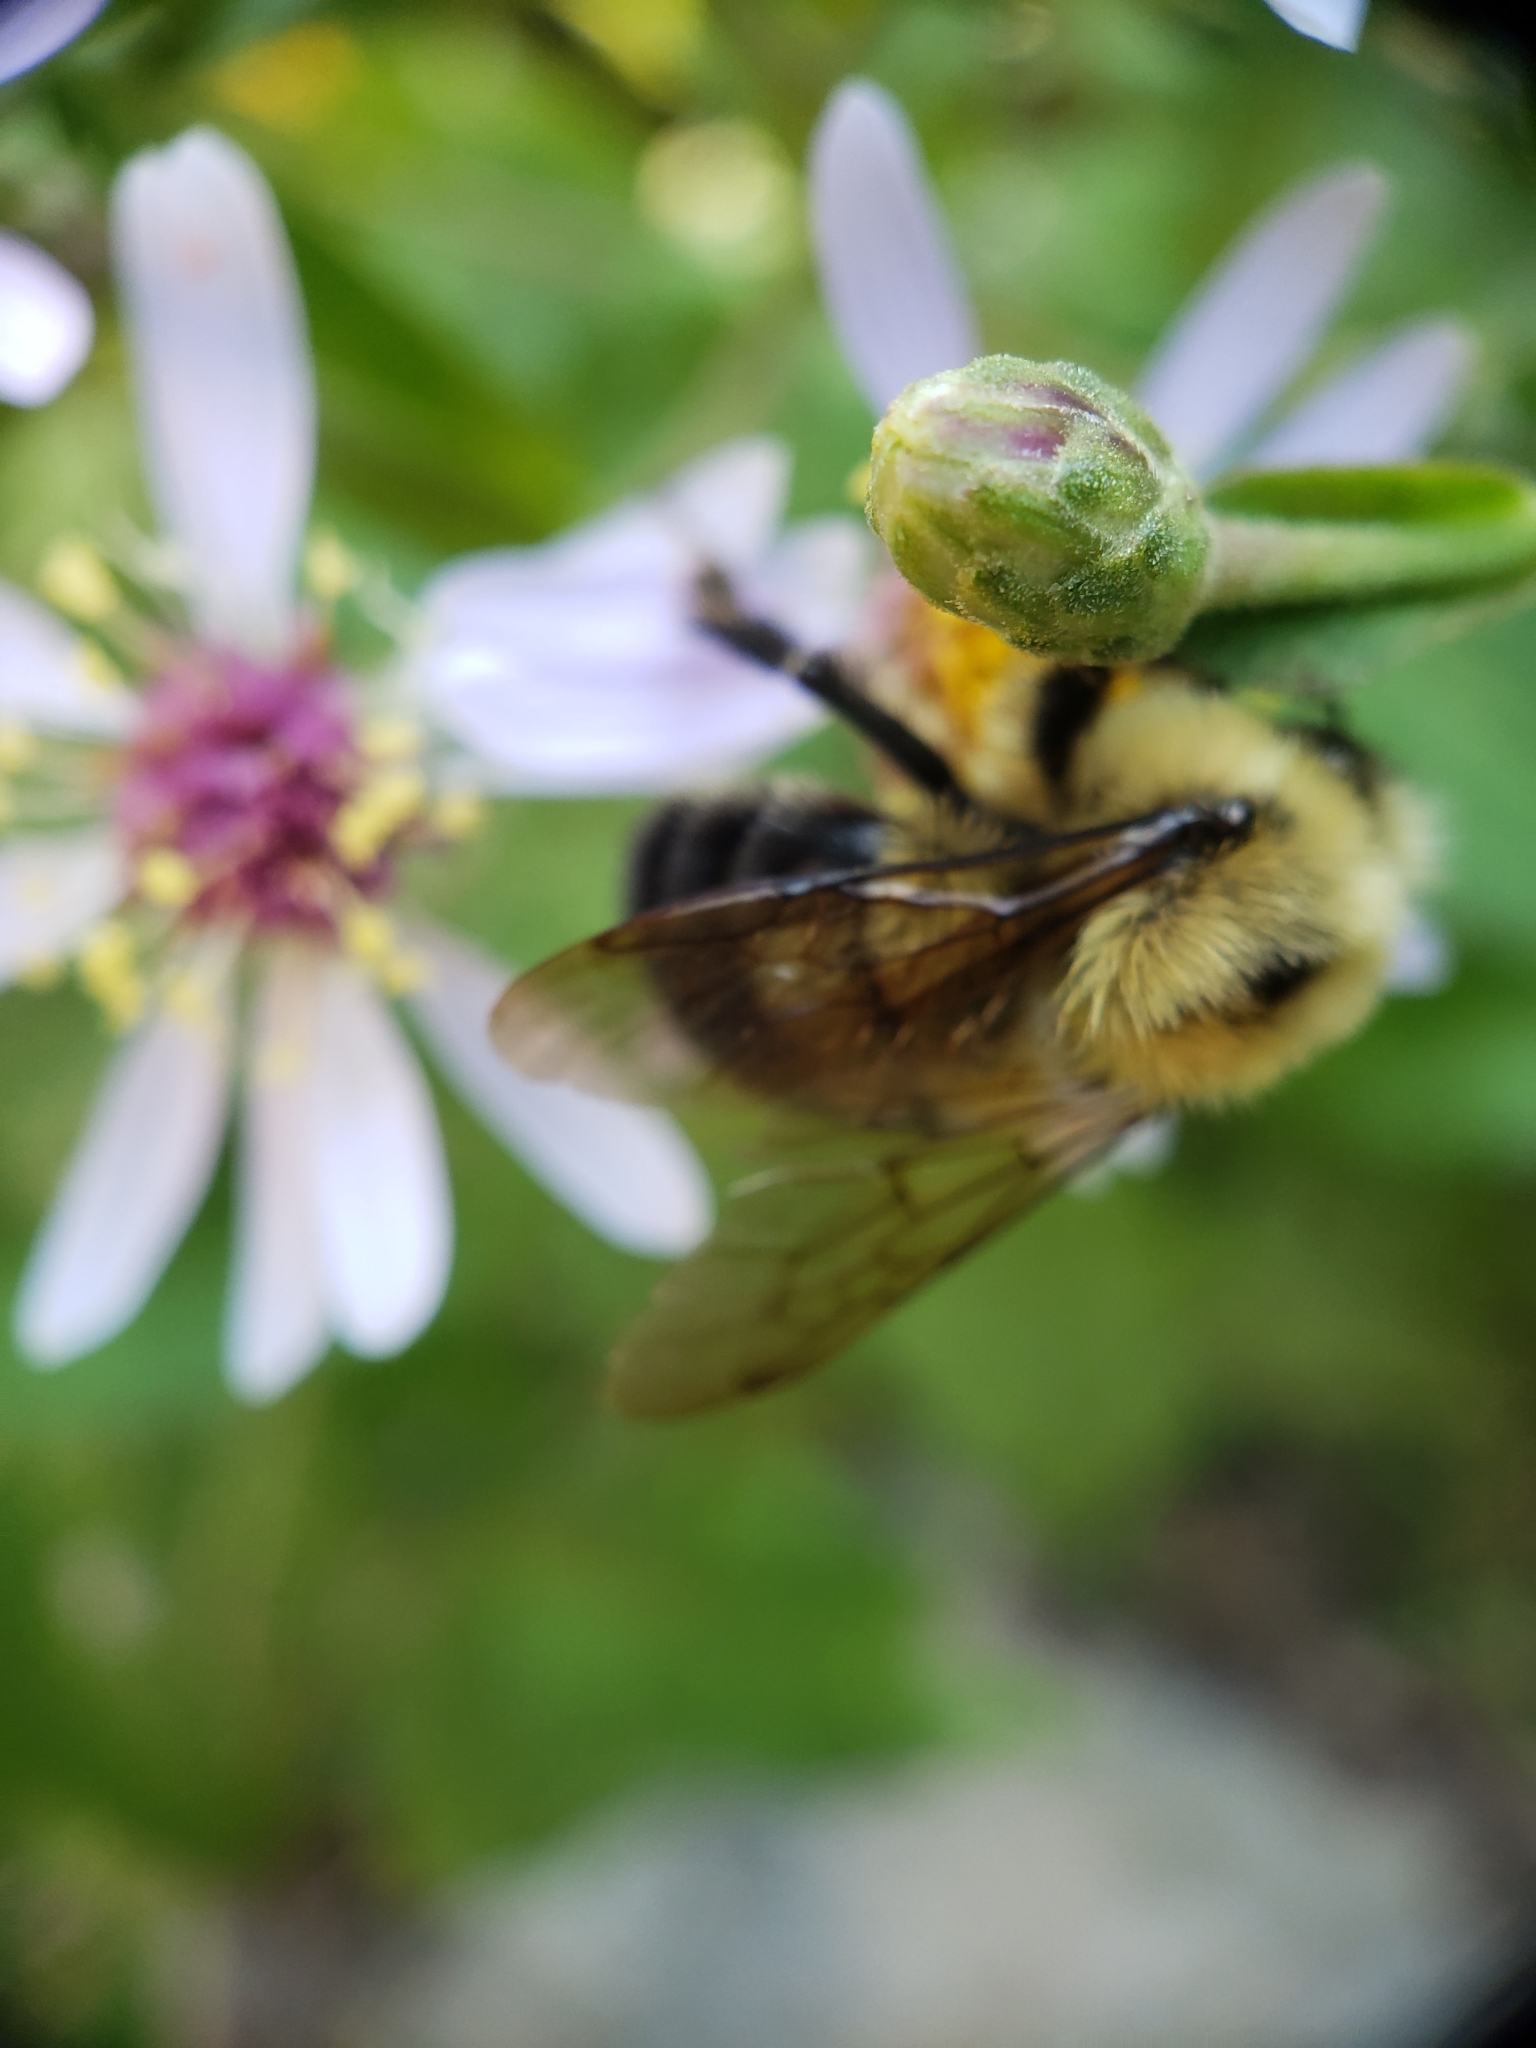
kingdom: Animalia
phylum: Arthropoda
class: Insecta
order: Hymenoptera
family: Apidae
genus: Bombus
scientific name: Bombus bimaculatus
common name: Two-spotted bumble bee
